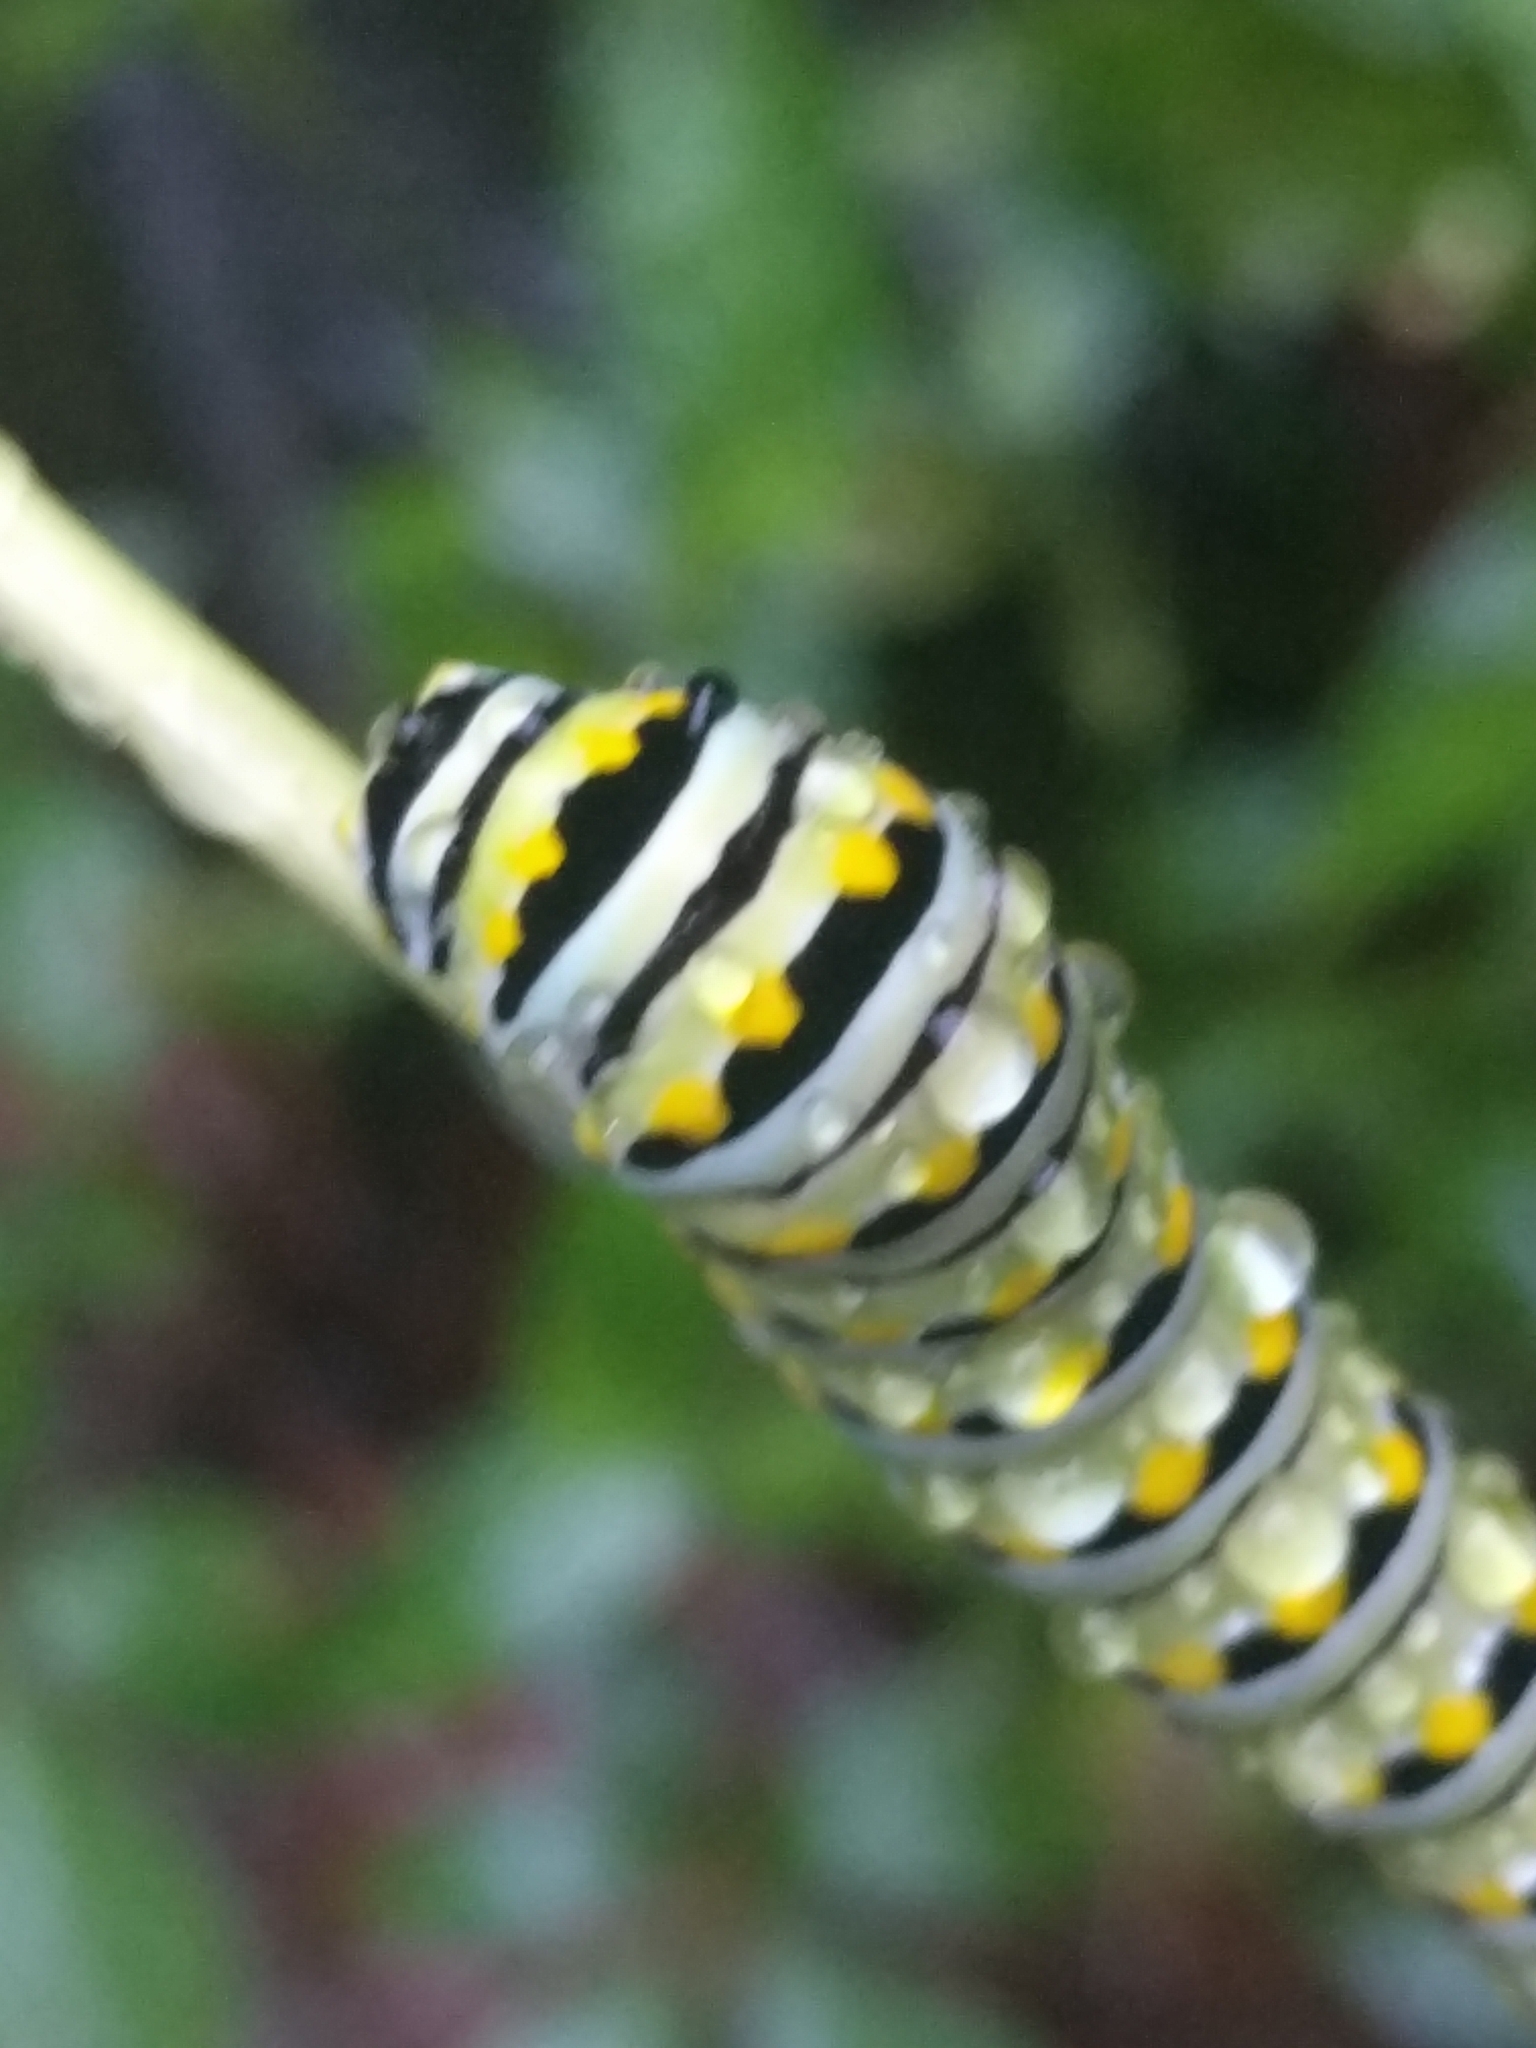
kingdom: Animalia
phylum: Arthropoda
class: Insecta
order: Lepidoptera
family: Papilionidae
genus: Papilio
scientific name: Papilio polyxenes
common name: Black swallowtail
